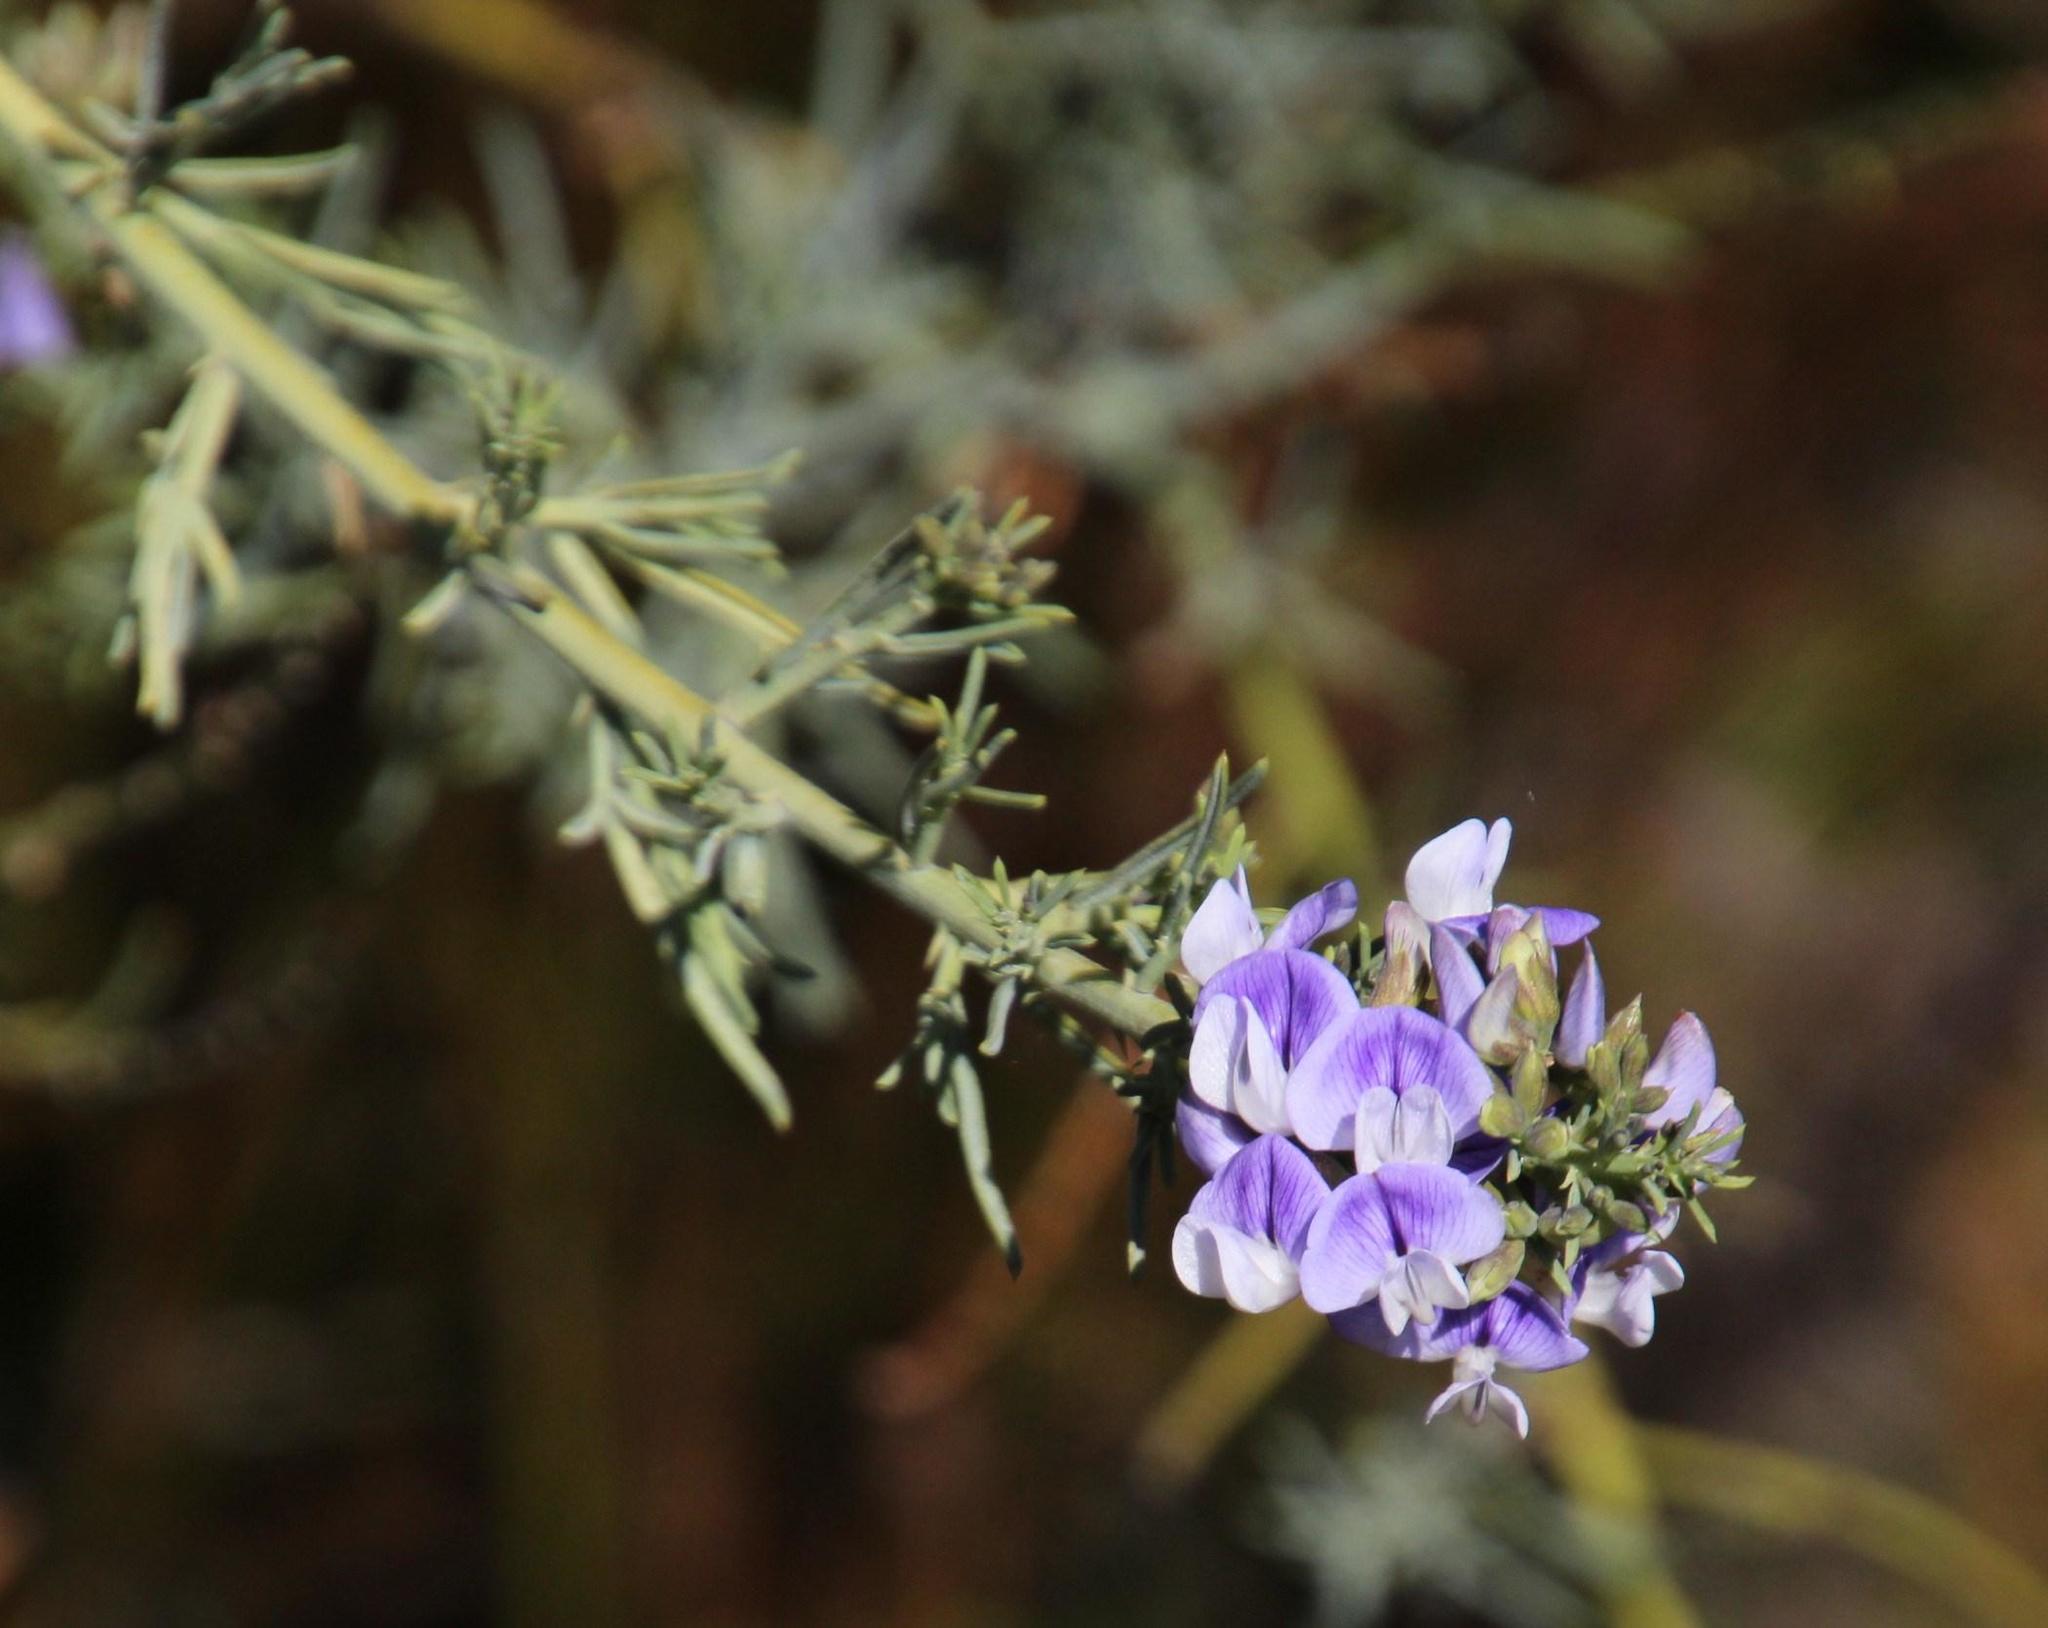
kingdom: Plantae
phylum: Tracheophyta
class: Magnoliopsida
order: Fabales
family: Fabaceae
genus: Psoralea
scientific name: Psoralea verrucosa
